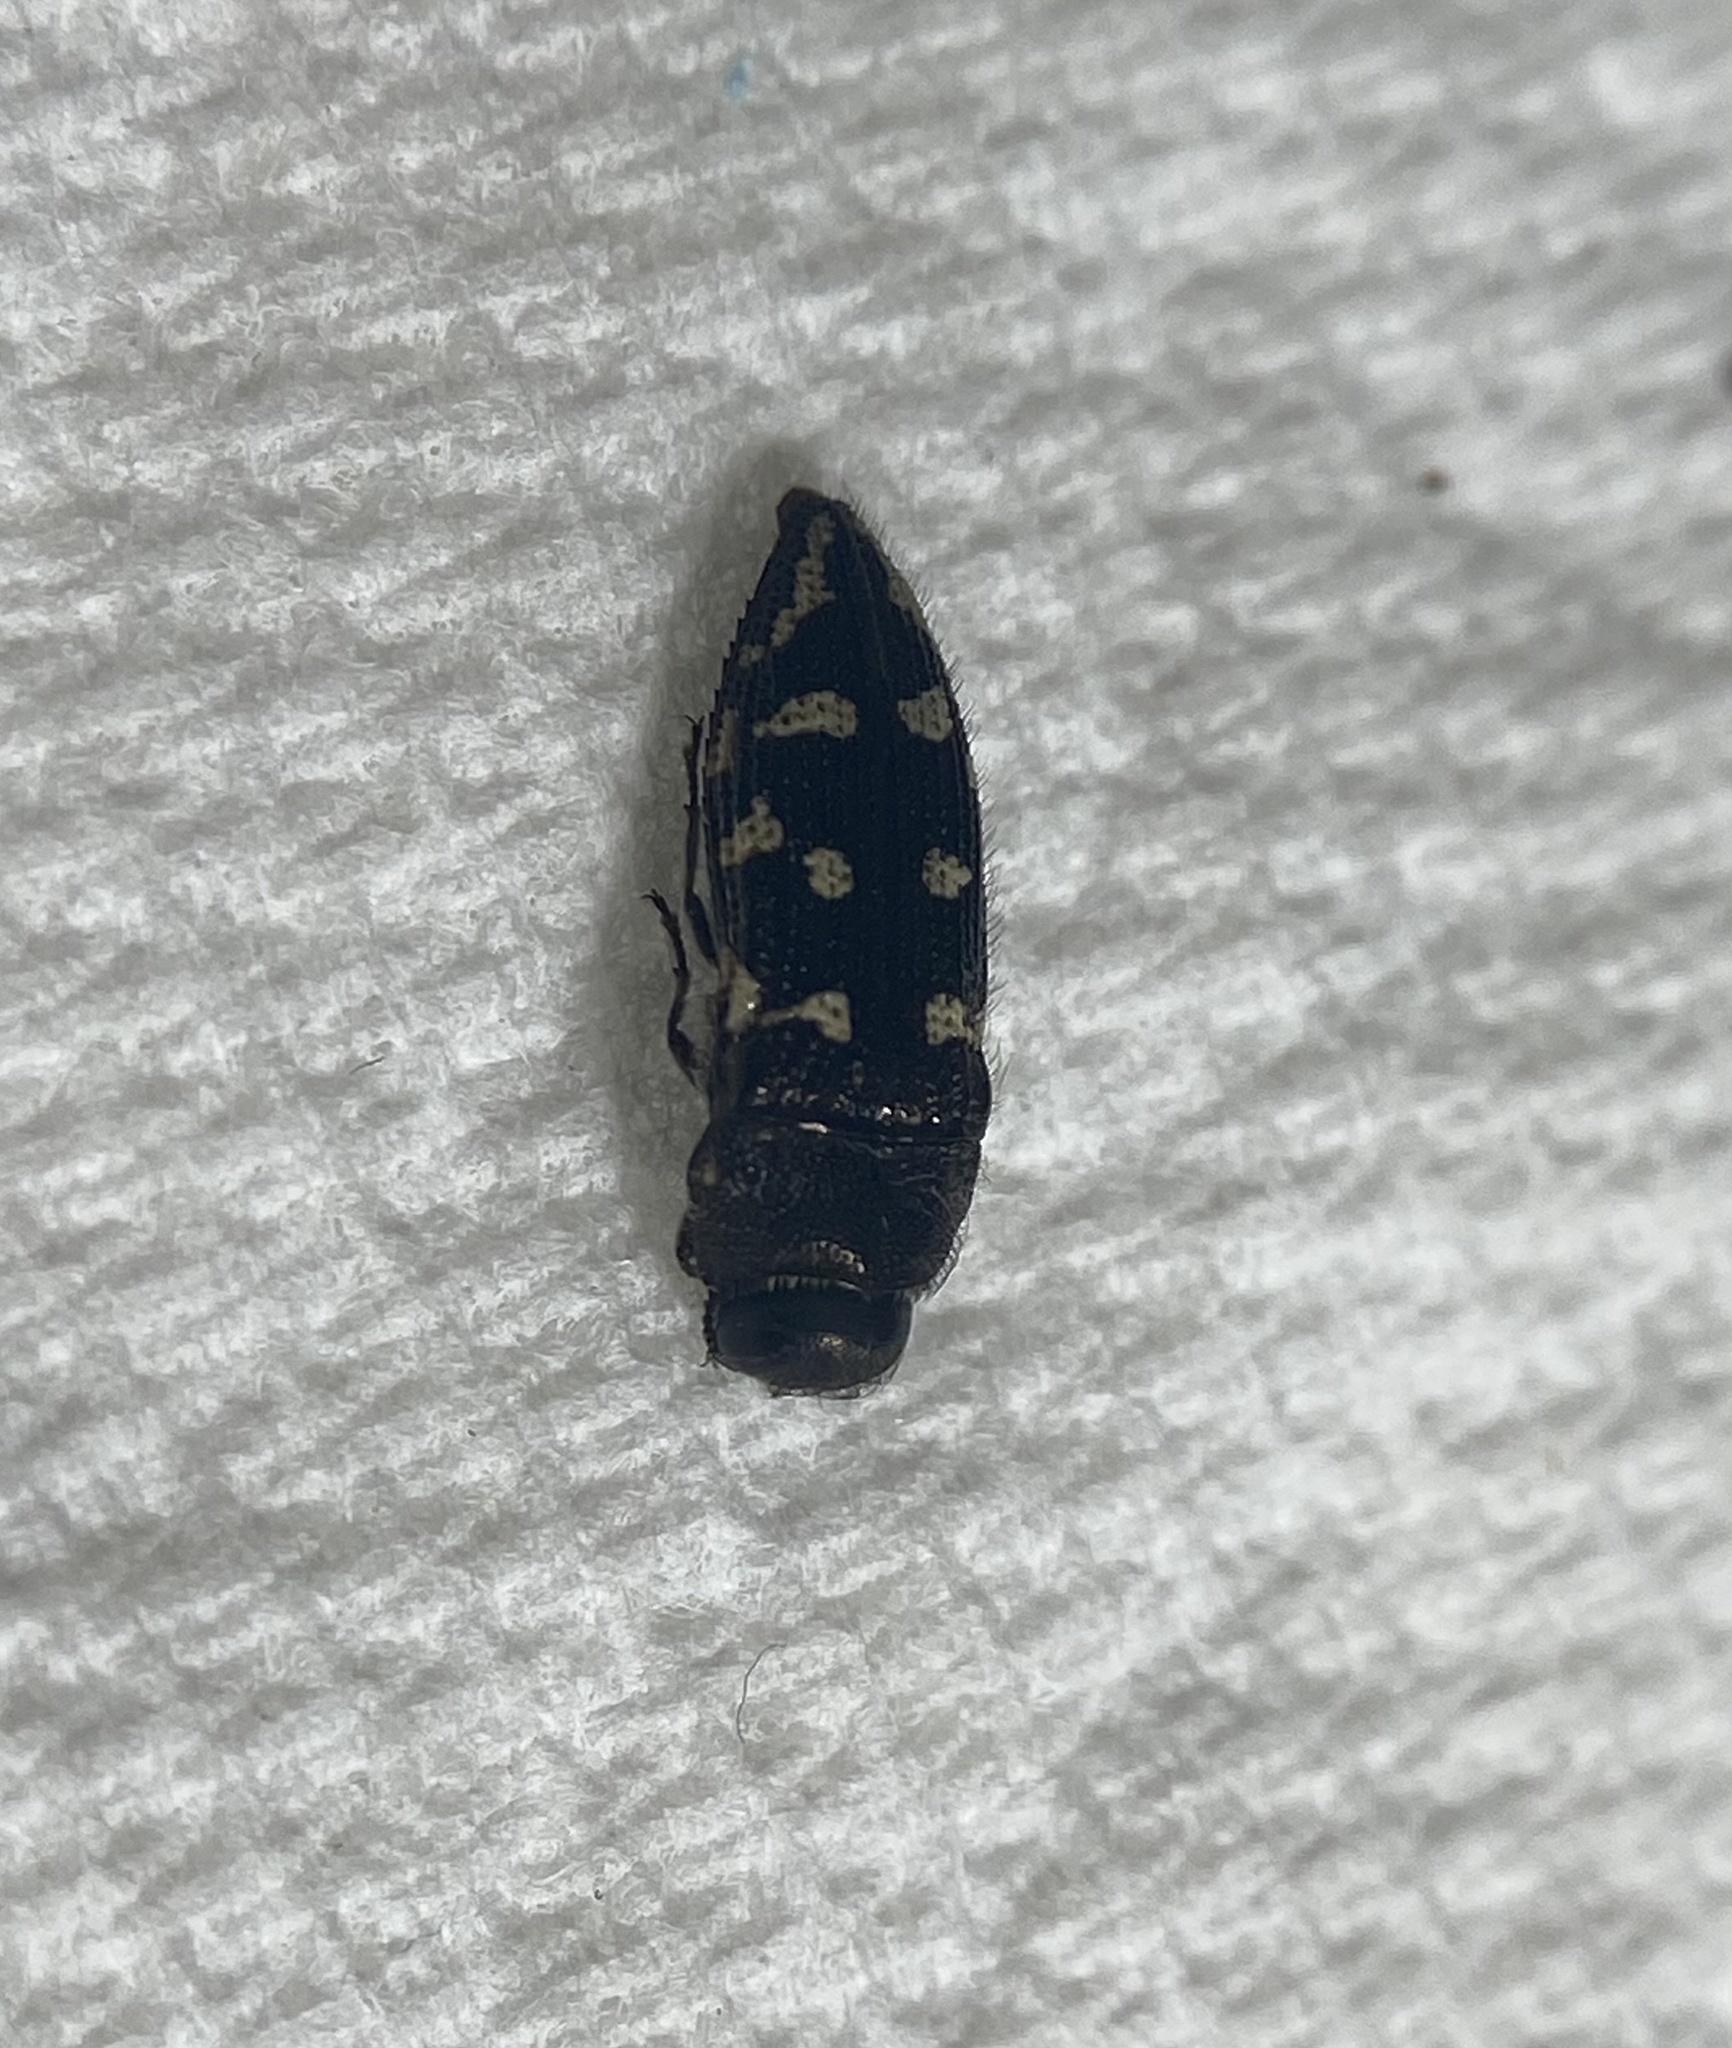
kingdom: Animalia
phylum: Arthropoda
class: Insecta
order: Coleoptera
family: Buprestidae
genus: Acmaeodera
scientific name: Acmaeodera bowditchi
